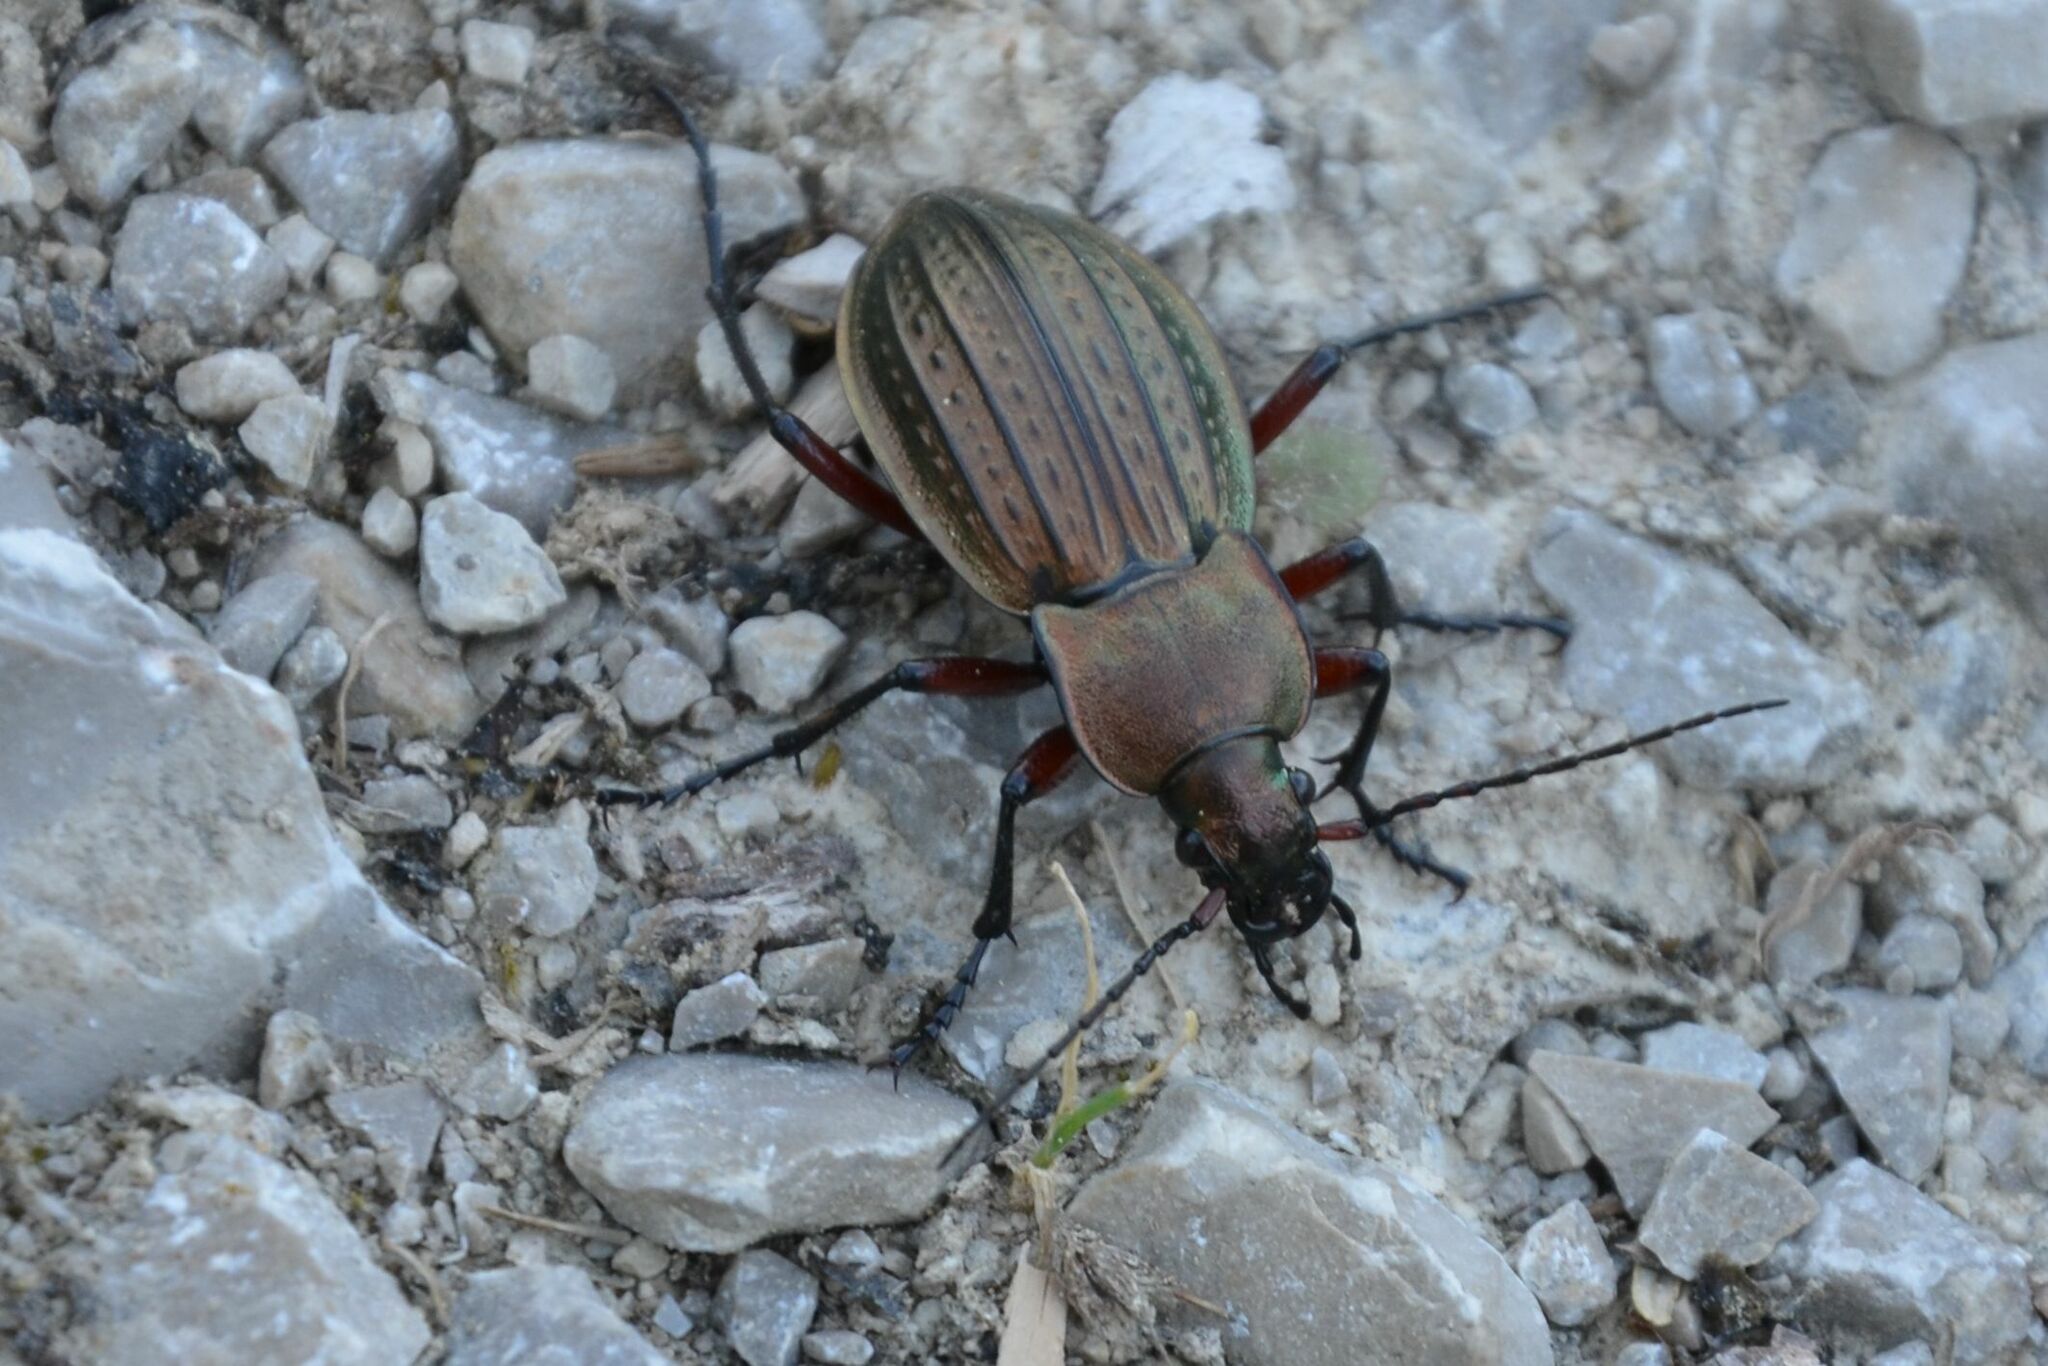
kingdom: Animalia
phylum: Arthropoda
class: Insecta
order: Coleoptera
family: Carabidae
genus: Carabus
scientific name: Carabus cancellatus
